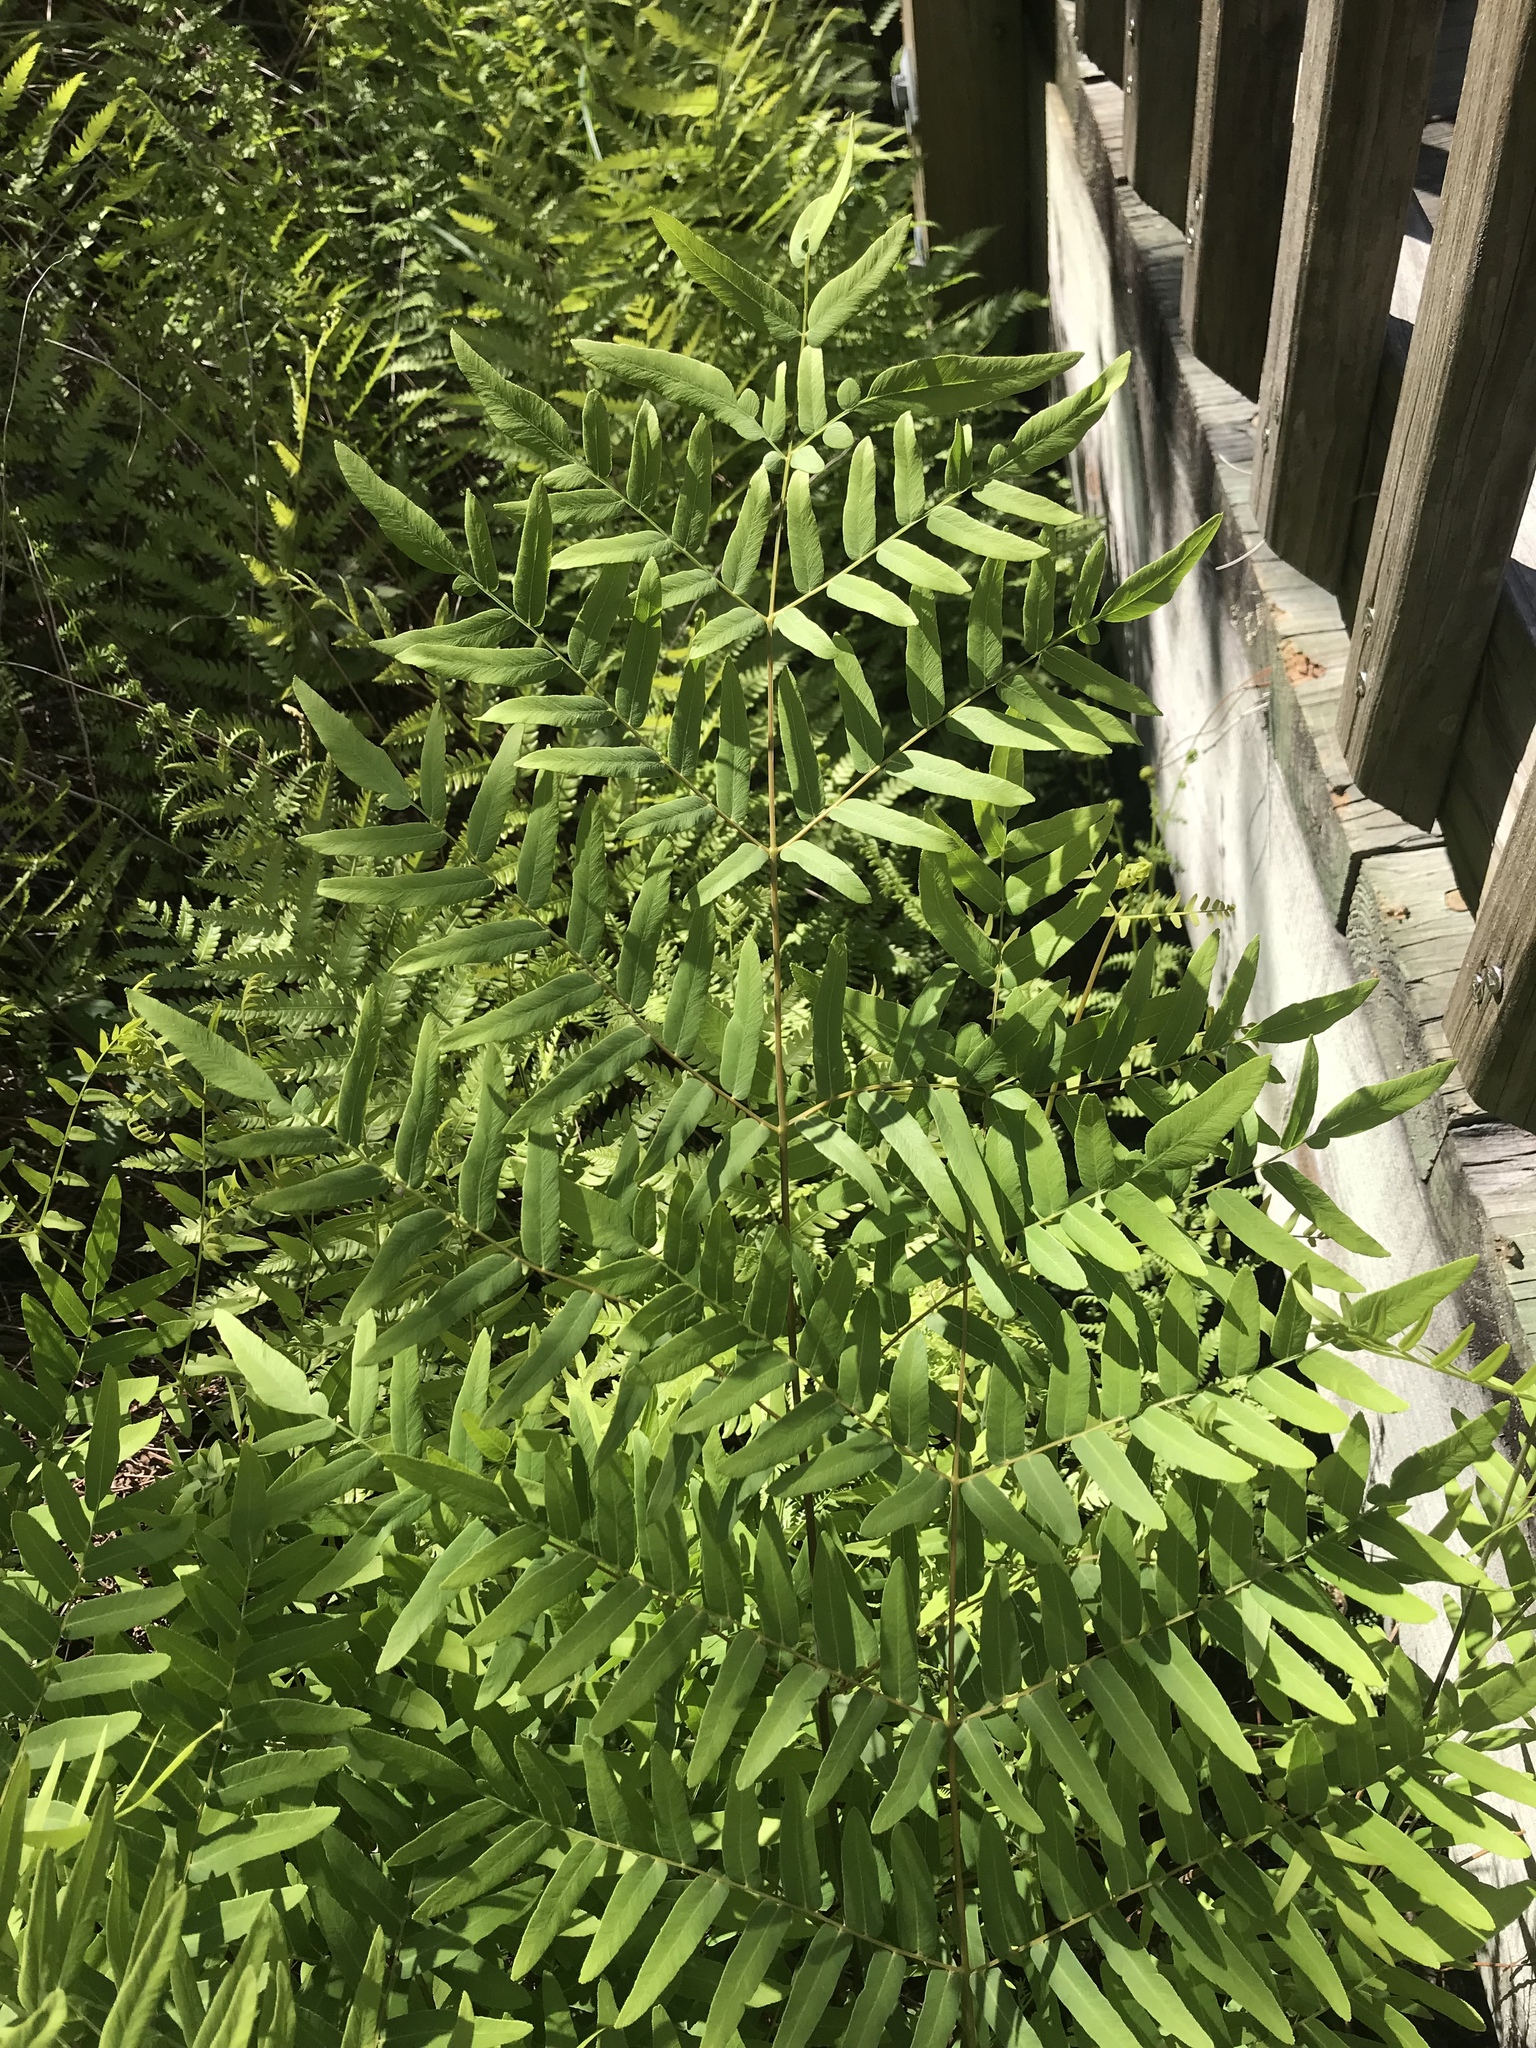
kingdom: Plantae
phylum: Tracheophyta
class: Polypodiopsida
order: Osmundales
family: Osmundaceae
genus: Osmunda
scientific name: Osmunda spectabilis
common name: American royal fern
